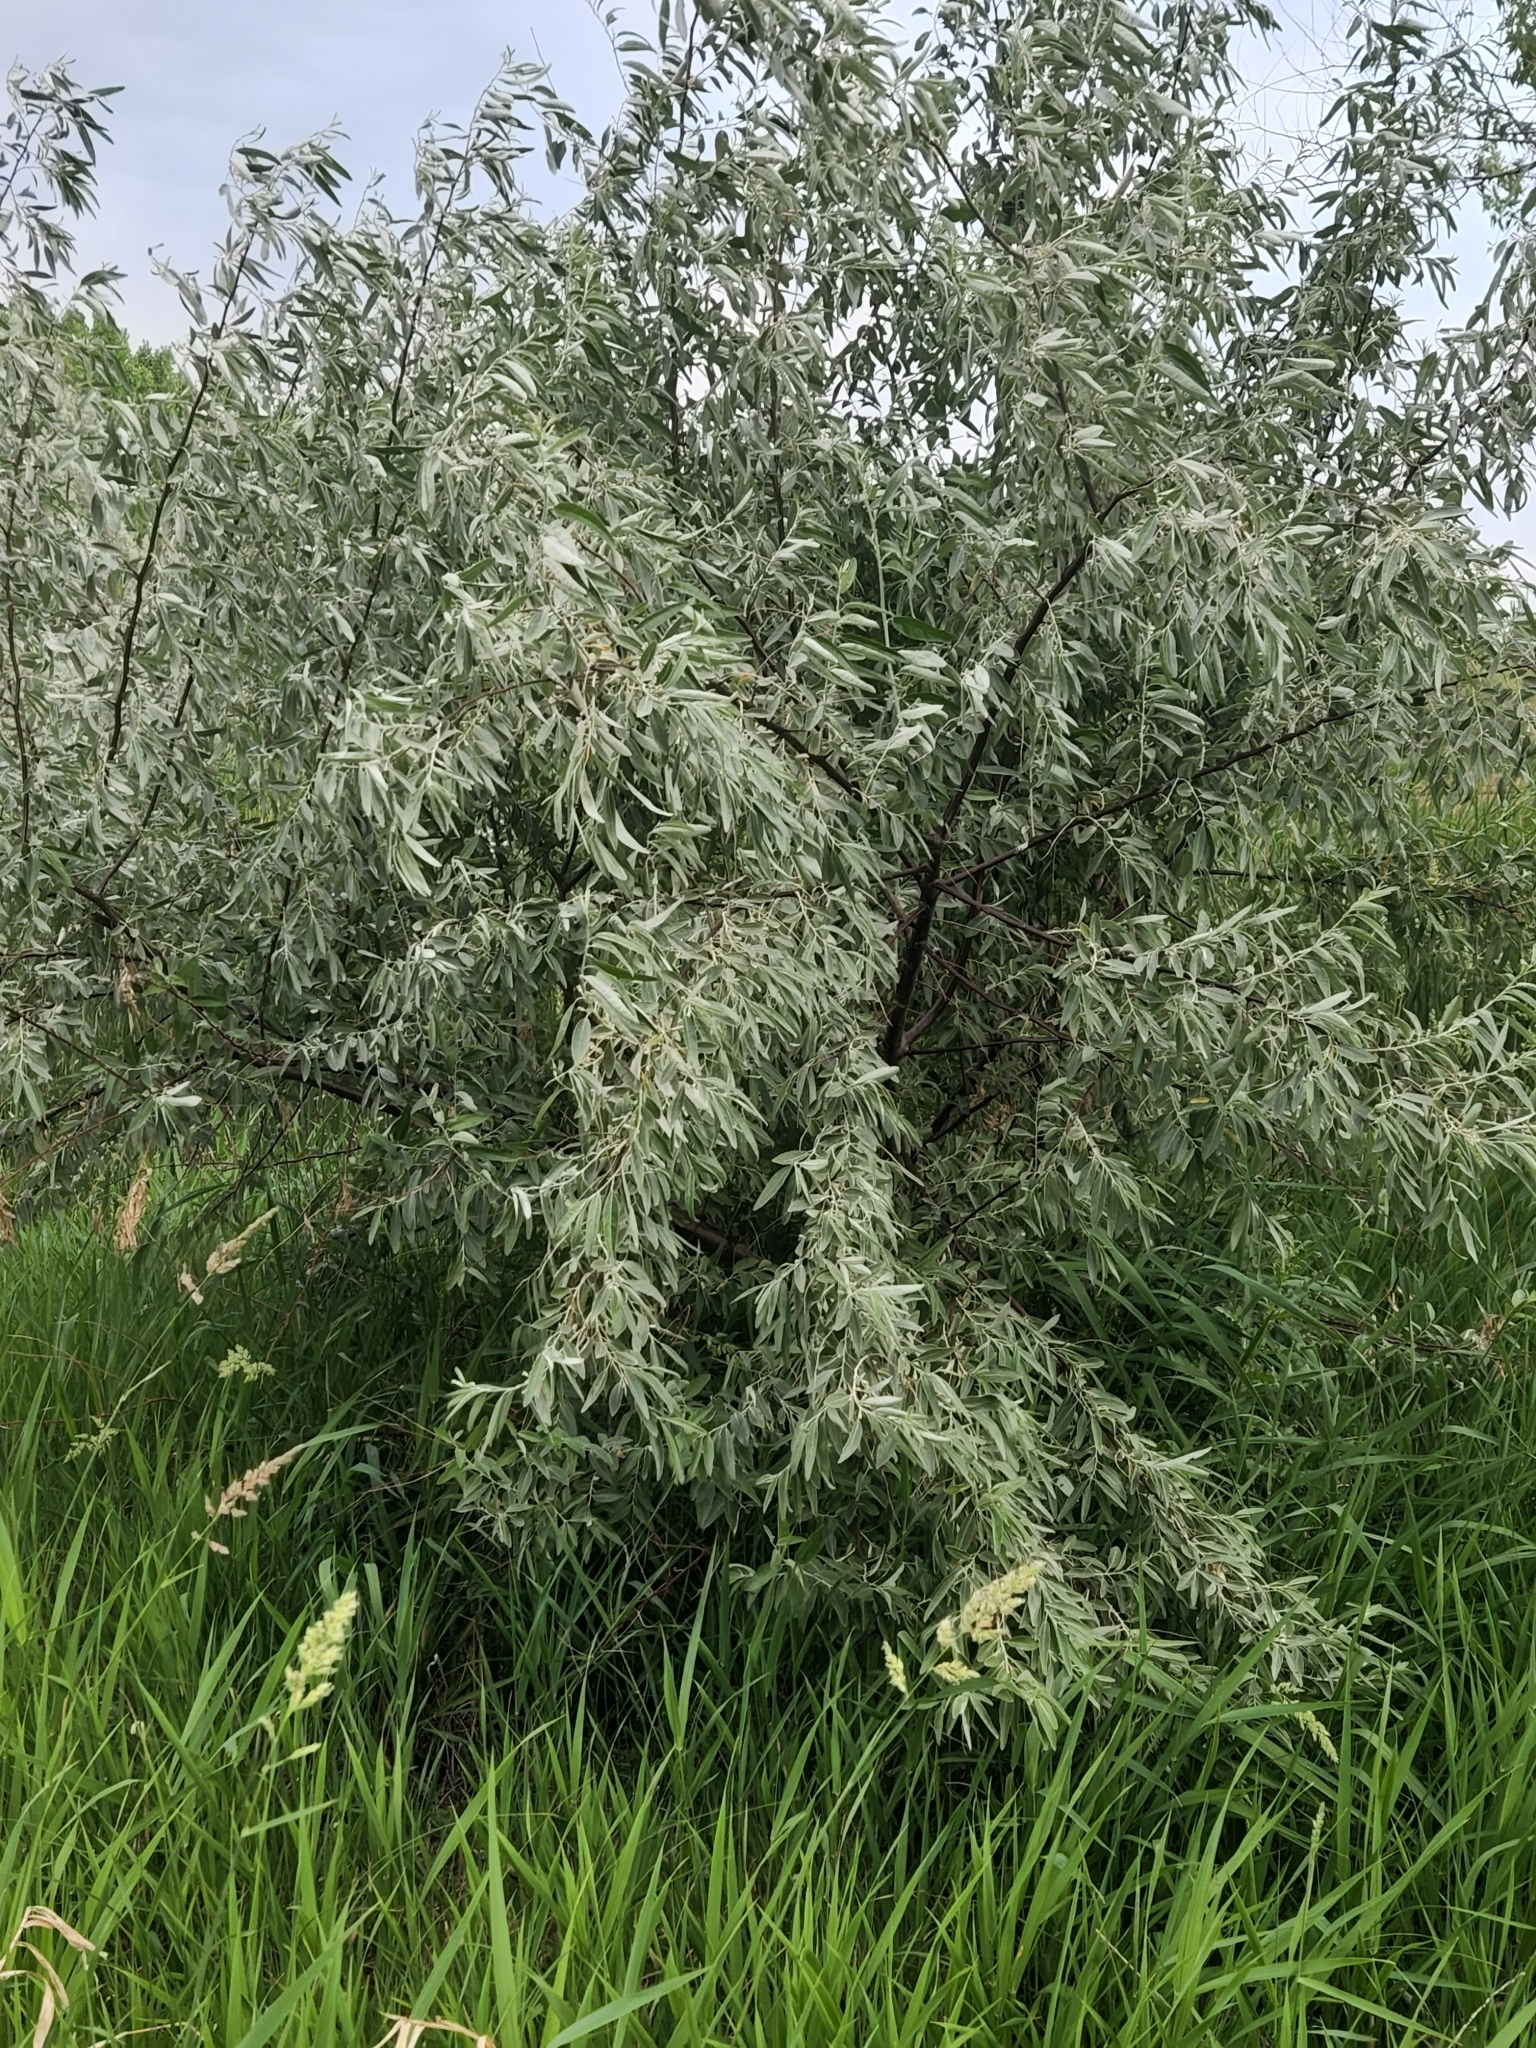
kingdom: Plantae
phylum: Tracheophyta
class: Magnoliopsida
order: Rosales
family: Elaeagnaceae
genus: Elaeagnus
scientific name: Elaeagnus angustifolia
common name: Russian olive
